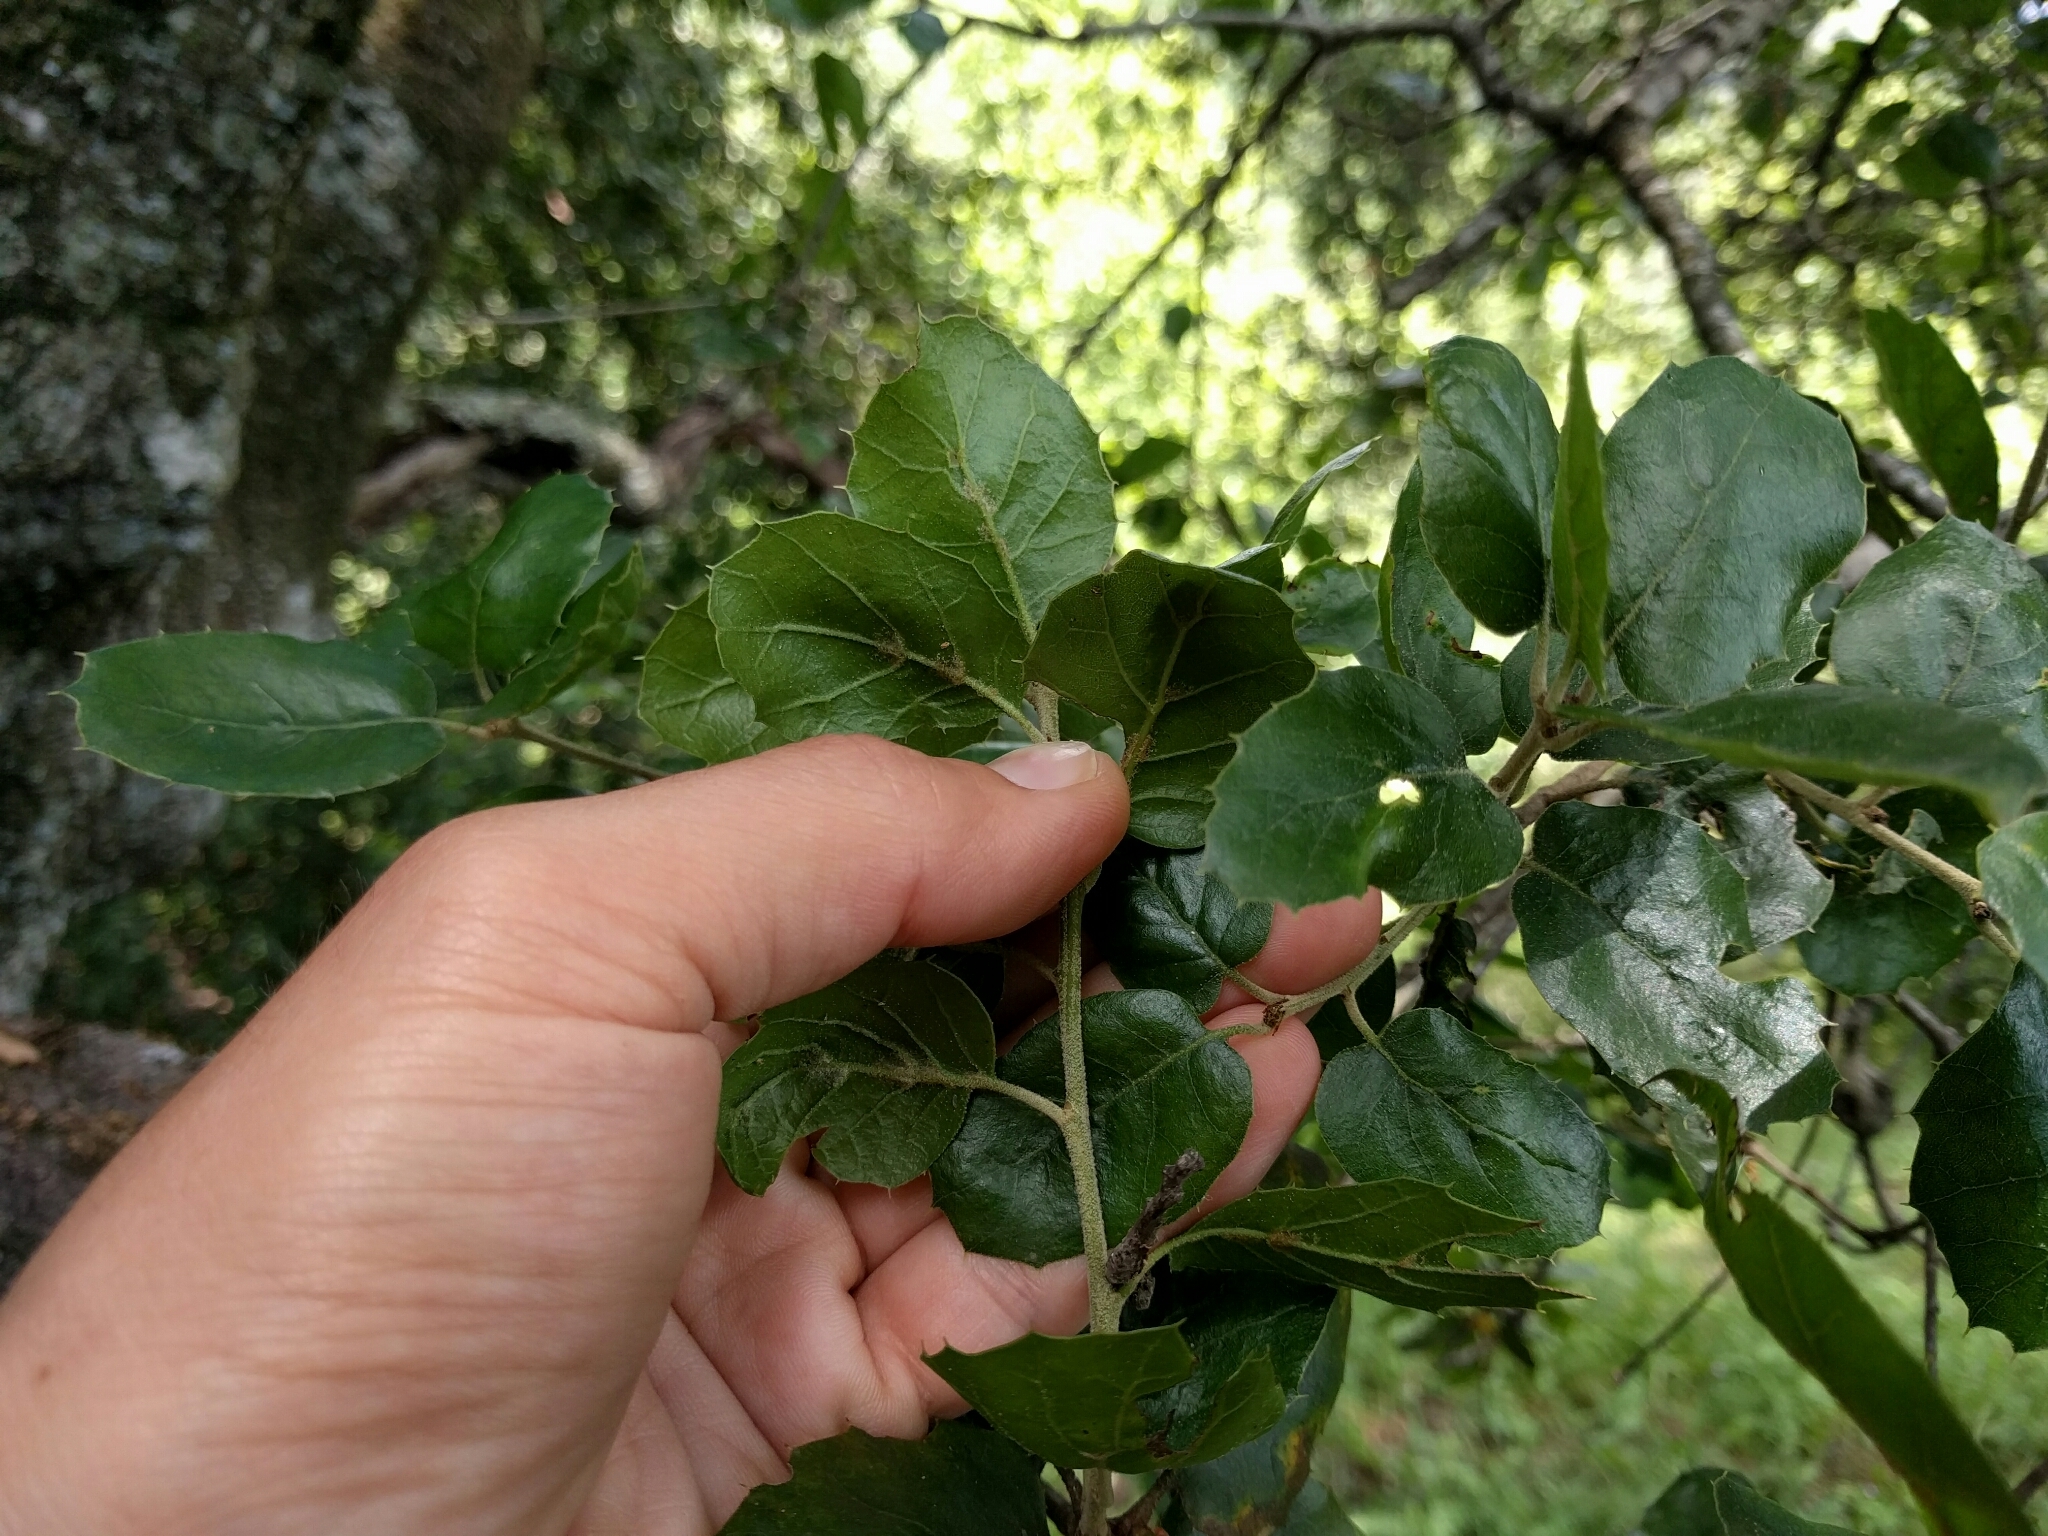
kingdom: Plantae
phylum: Tracheophyta
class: Magnoliopsida
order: Fagales
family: Fagaceae
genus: Quercus
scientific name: Quercus agrifolia
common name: California live oak
